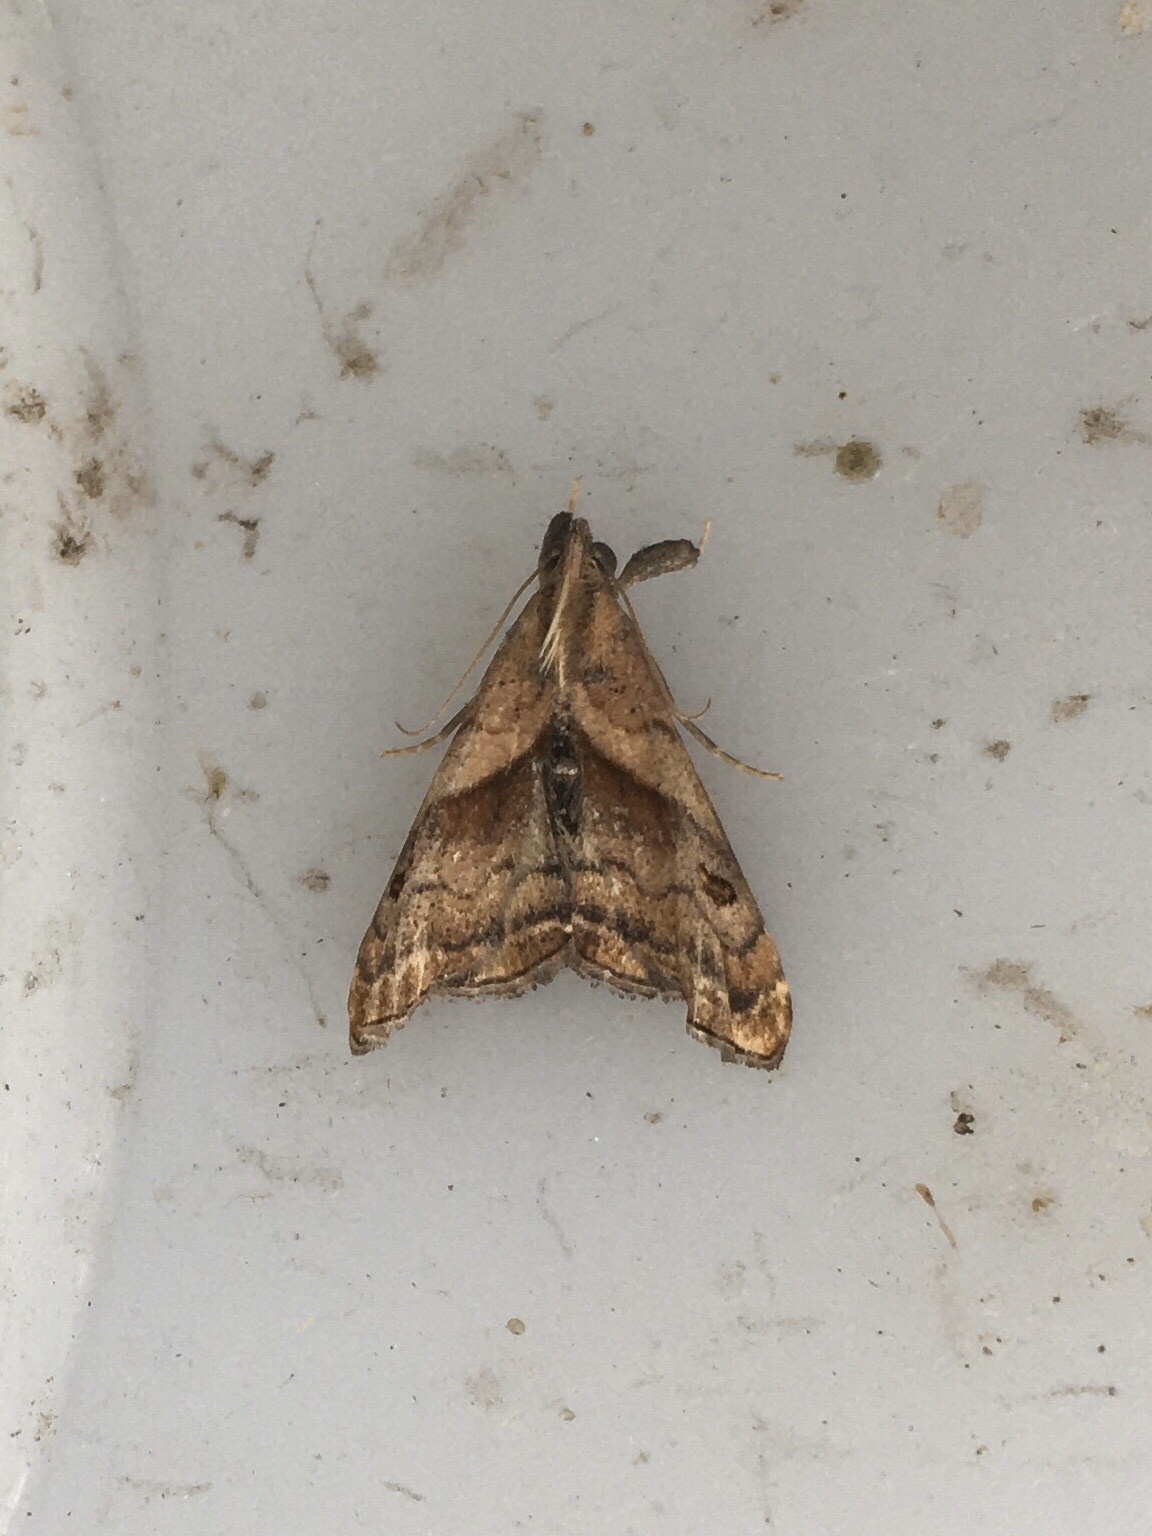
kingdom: Animalia
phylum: Arthropoda
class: Insecta
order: Lepidoptera
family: Erebidae
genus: Palthis
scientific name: Palthis angulalis
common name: Dark-spotted palthis moth
